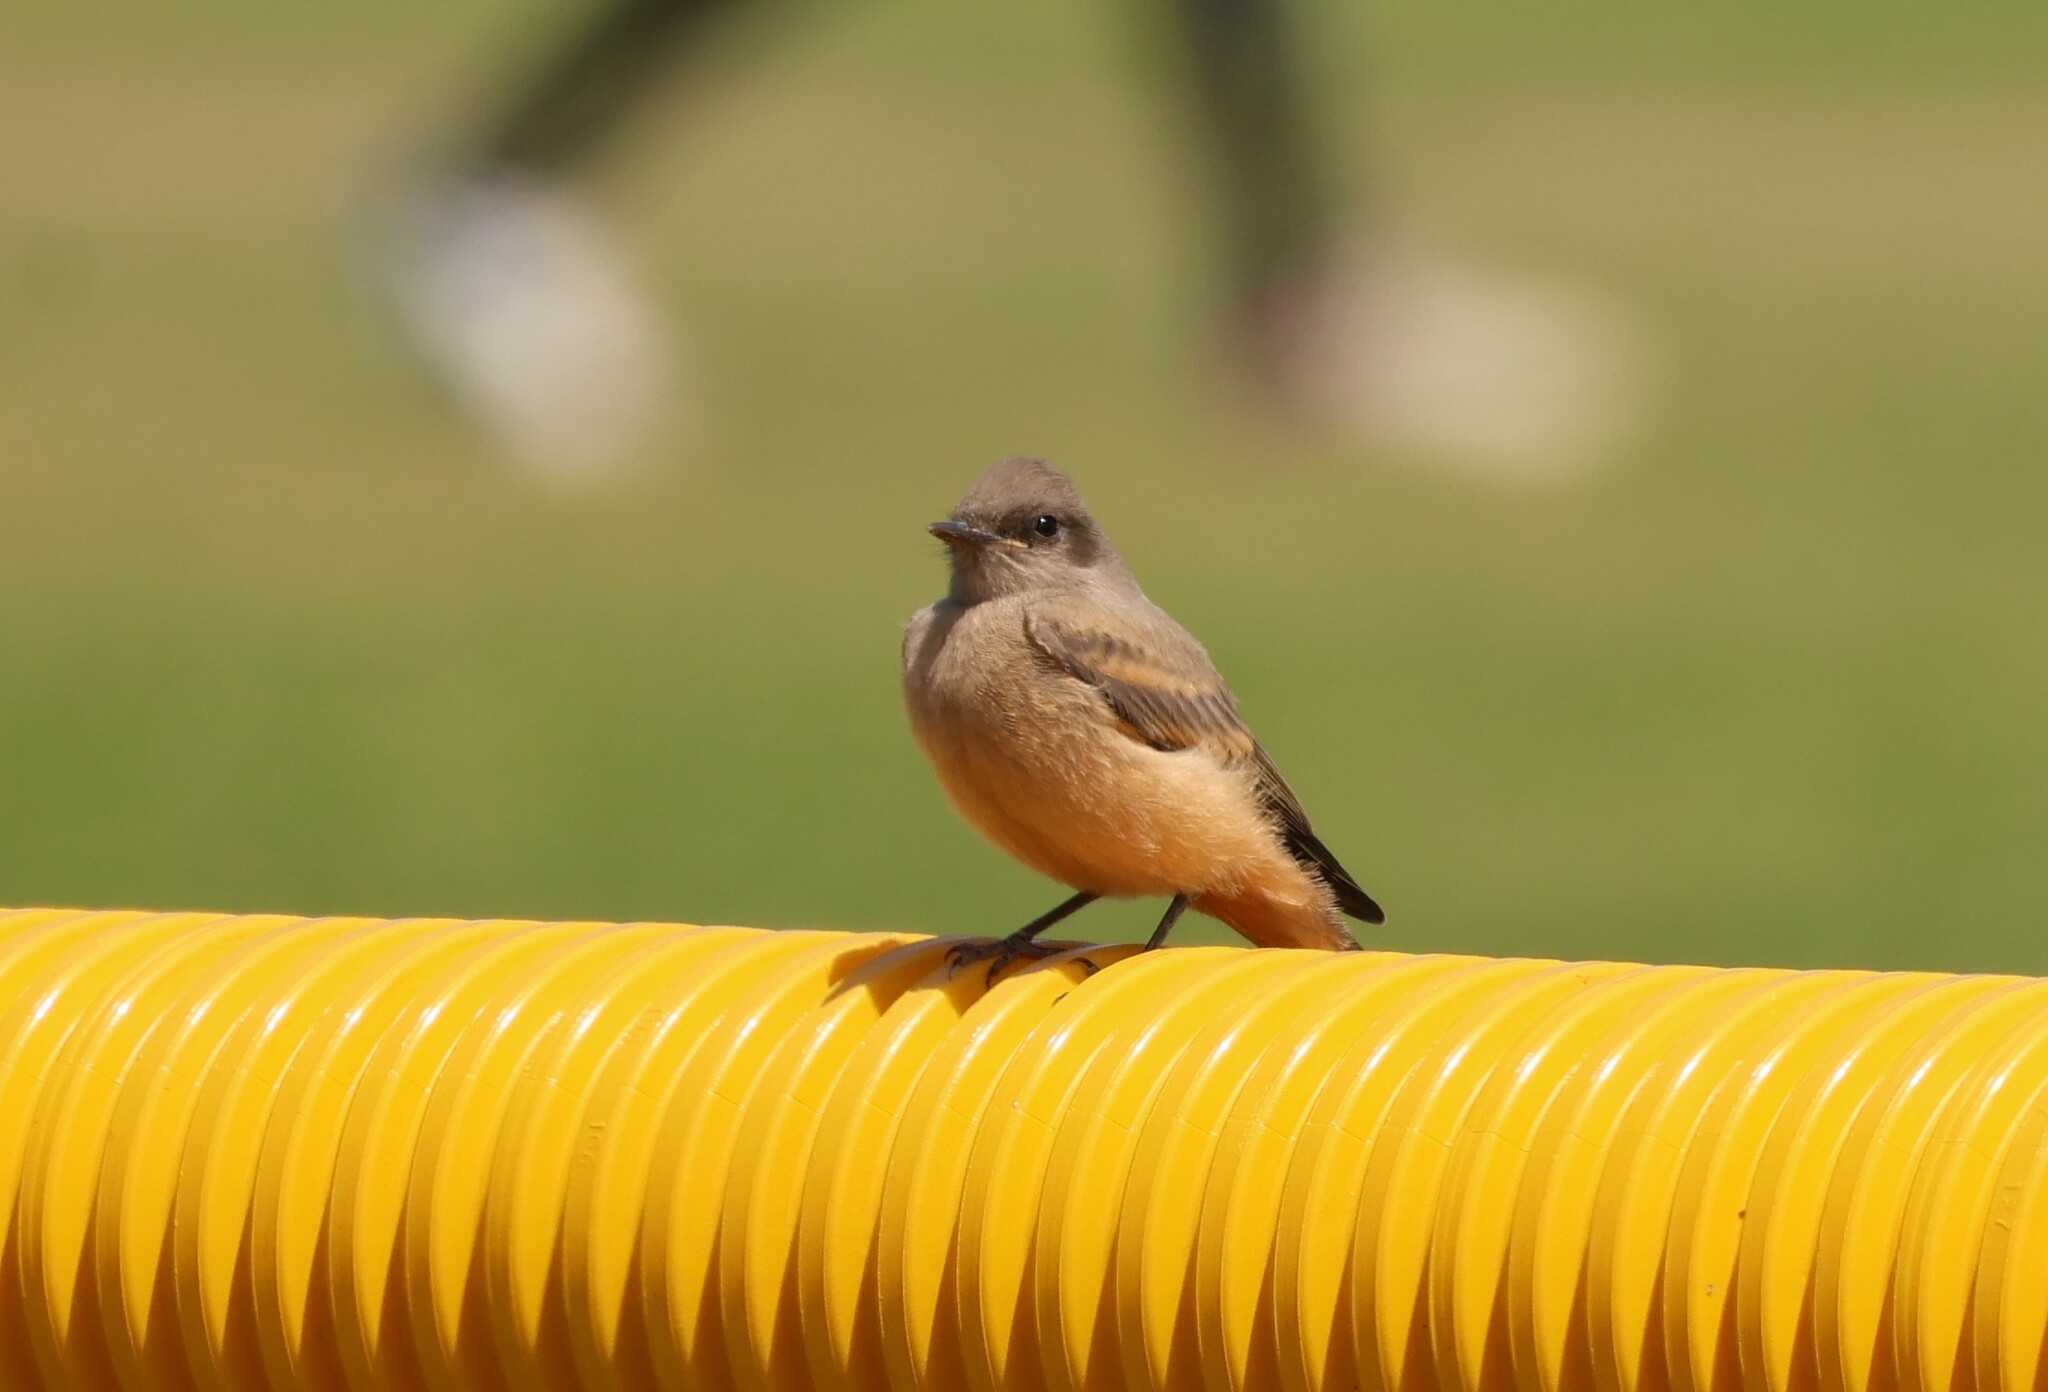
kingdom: Animalia
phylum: Chordata
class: Aves
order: Passeriformes
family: Tyrannidae
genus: Sayornis
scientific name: Sayornis saya
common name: Say's phoebe
